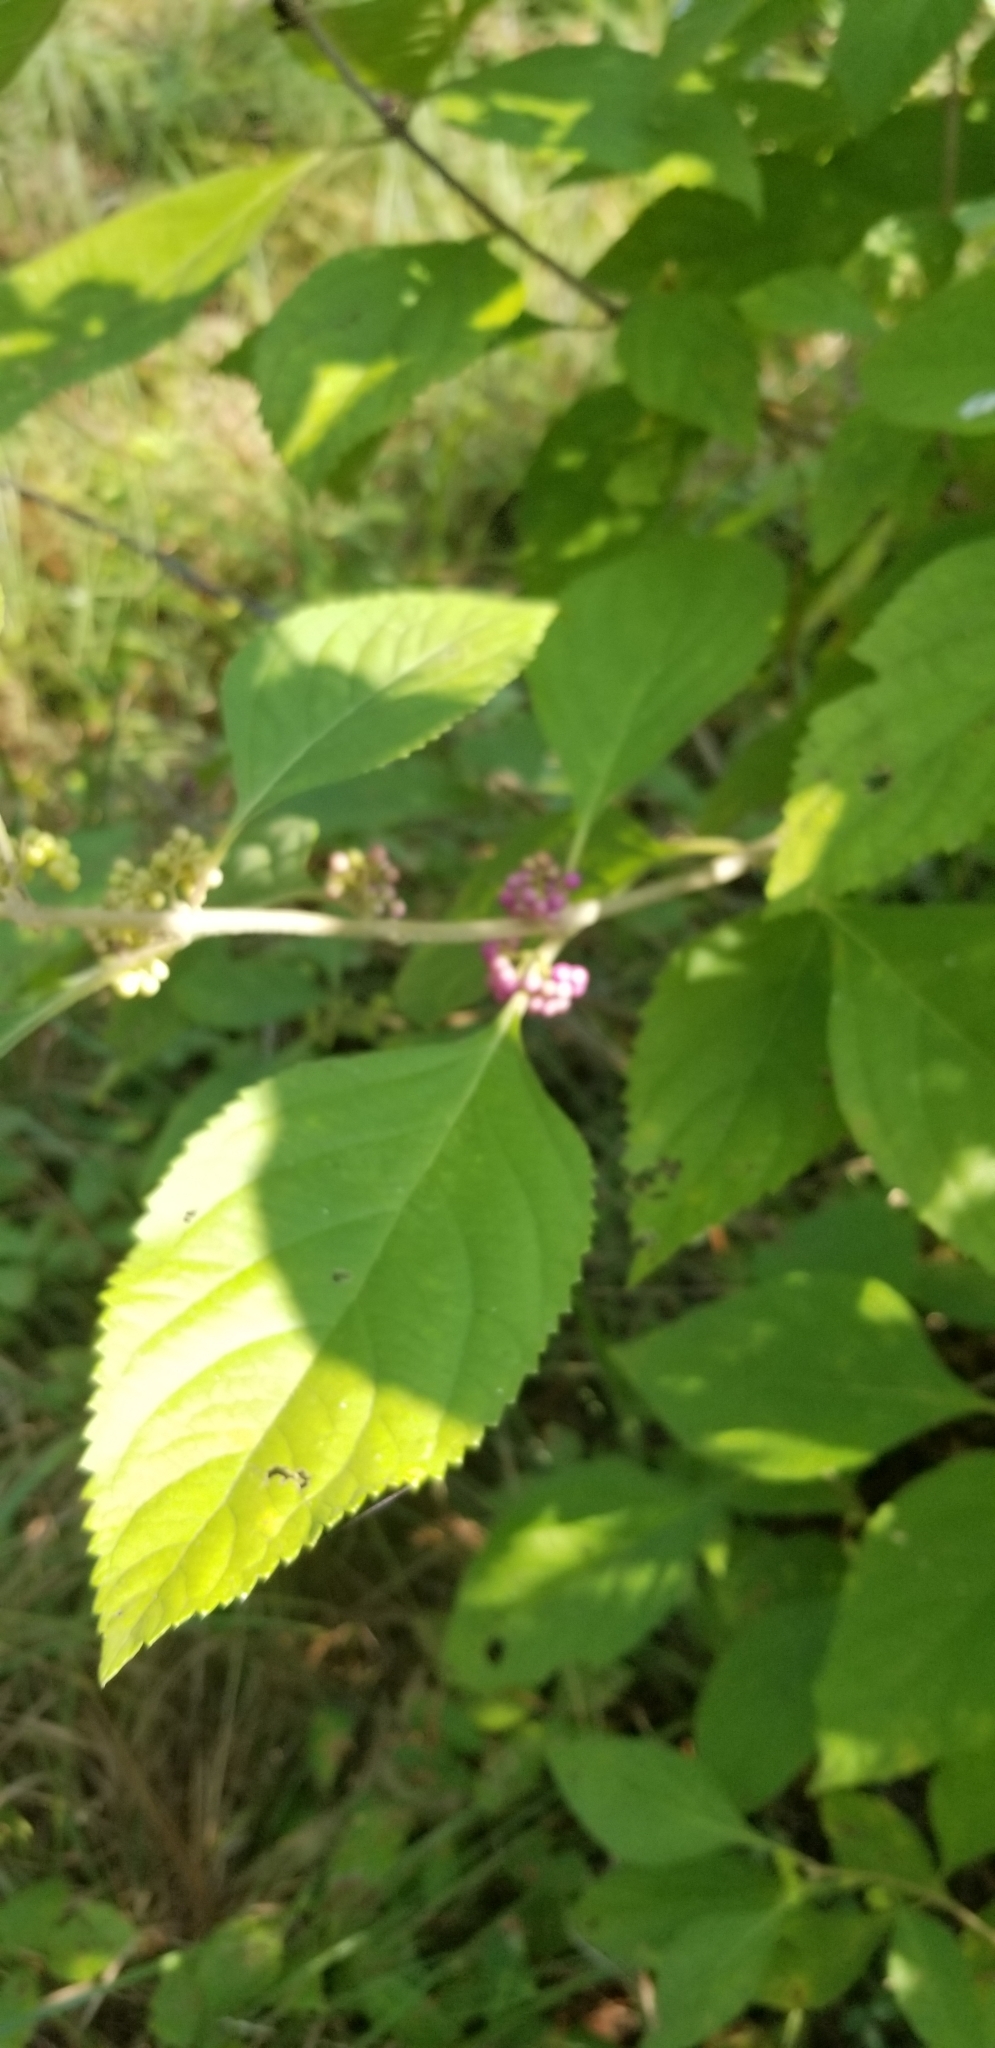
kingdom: Plantae
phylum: Tracheophyta
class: Magnoliopsida
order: Lamiales
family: Lamiaceae
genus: Callicarpa
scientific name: Callicarpa americana
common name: American beautyberry
